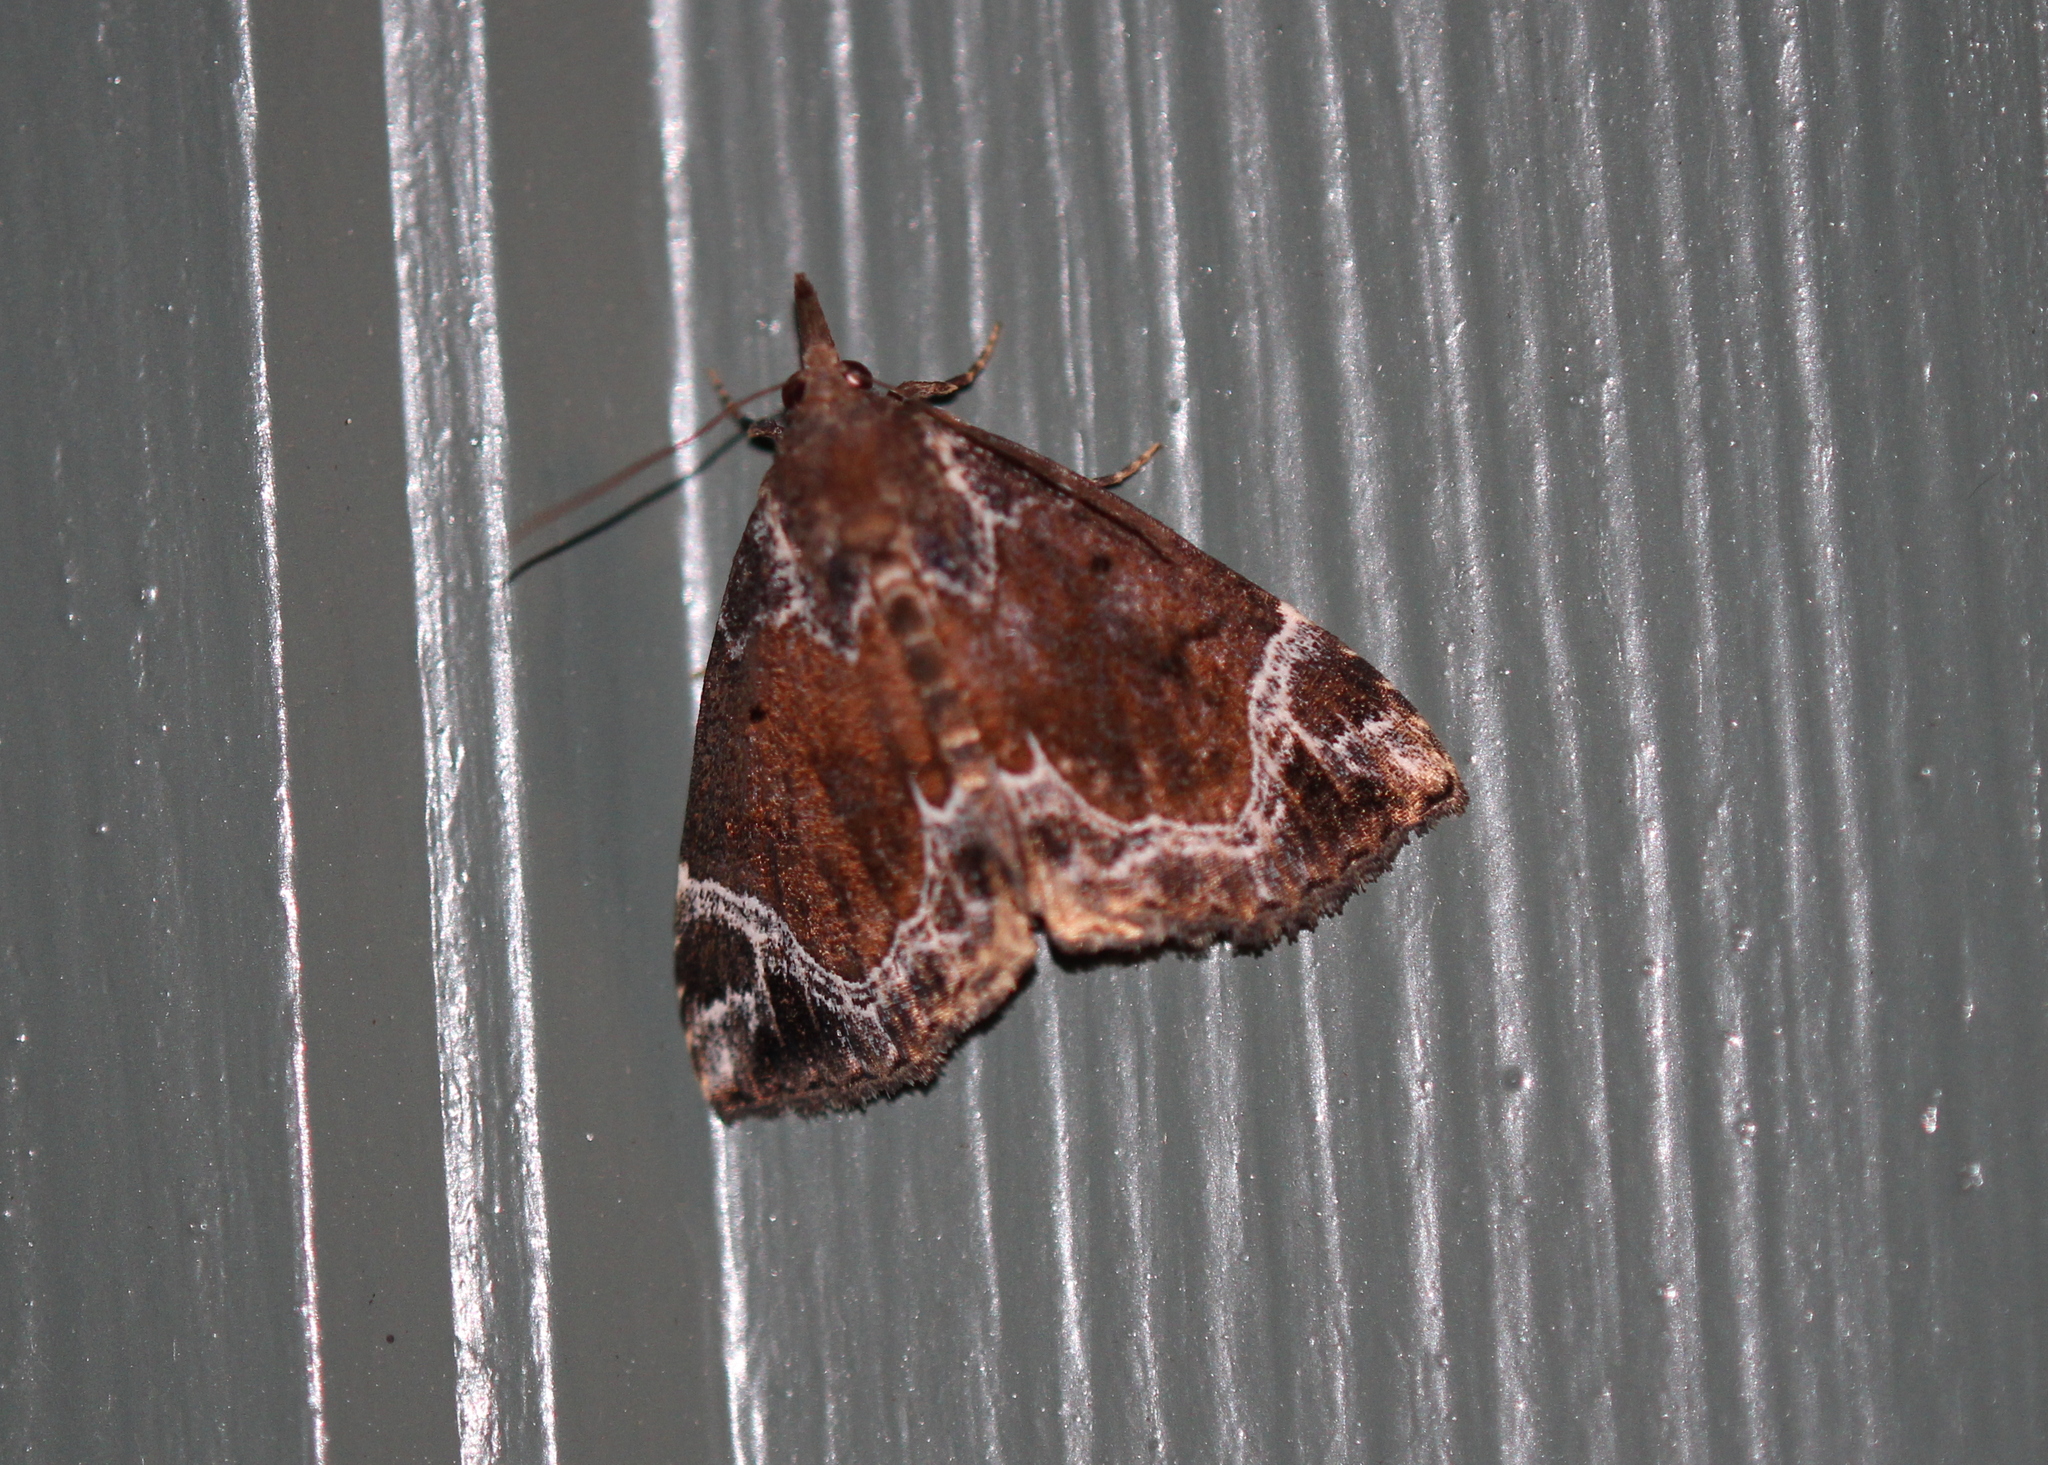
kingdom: Animalia
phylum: Arthropoda
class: Insecta
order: Lepidoptera
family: Erebidae
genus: Hypena
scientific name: Hypena abalienalis
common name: White-lined snout
